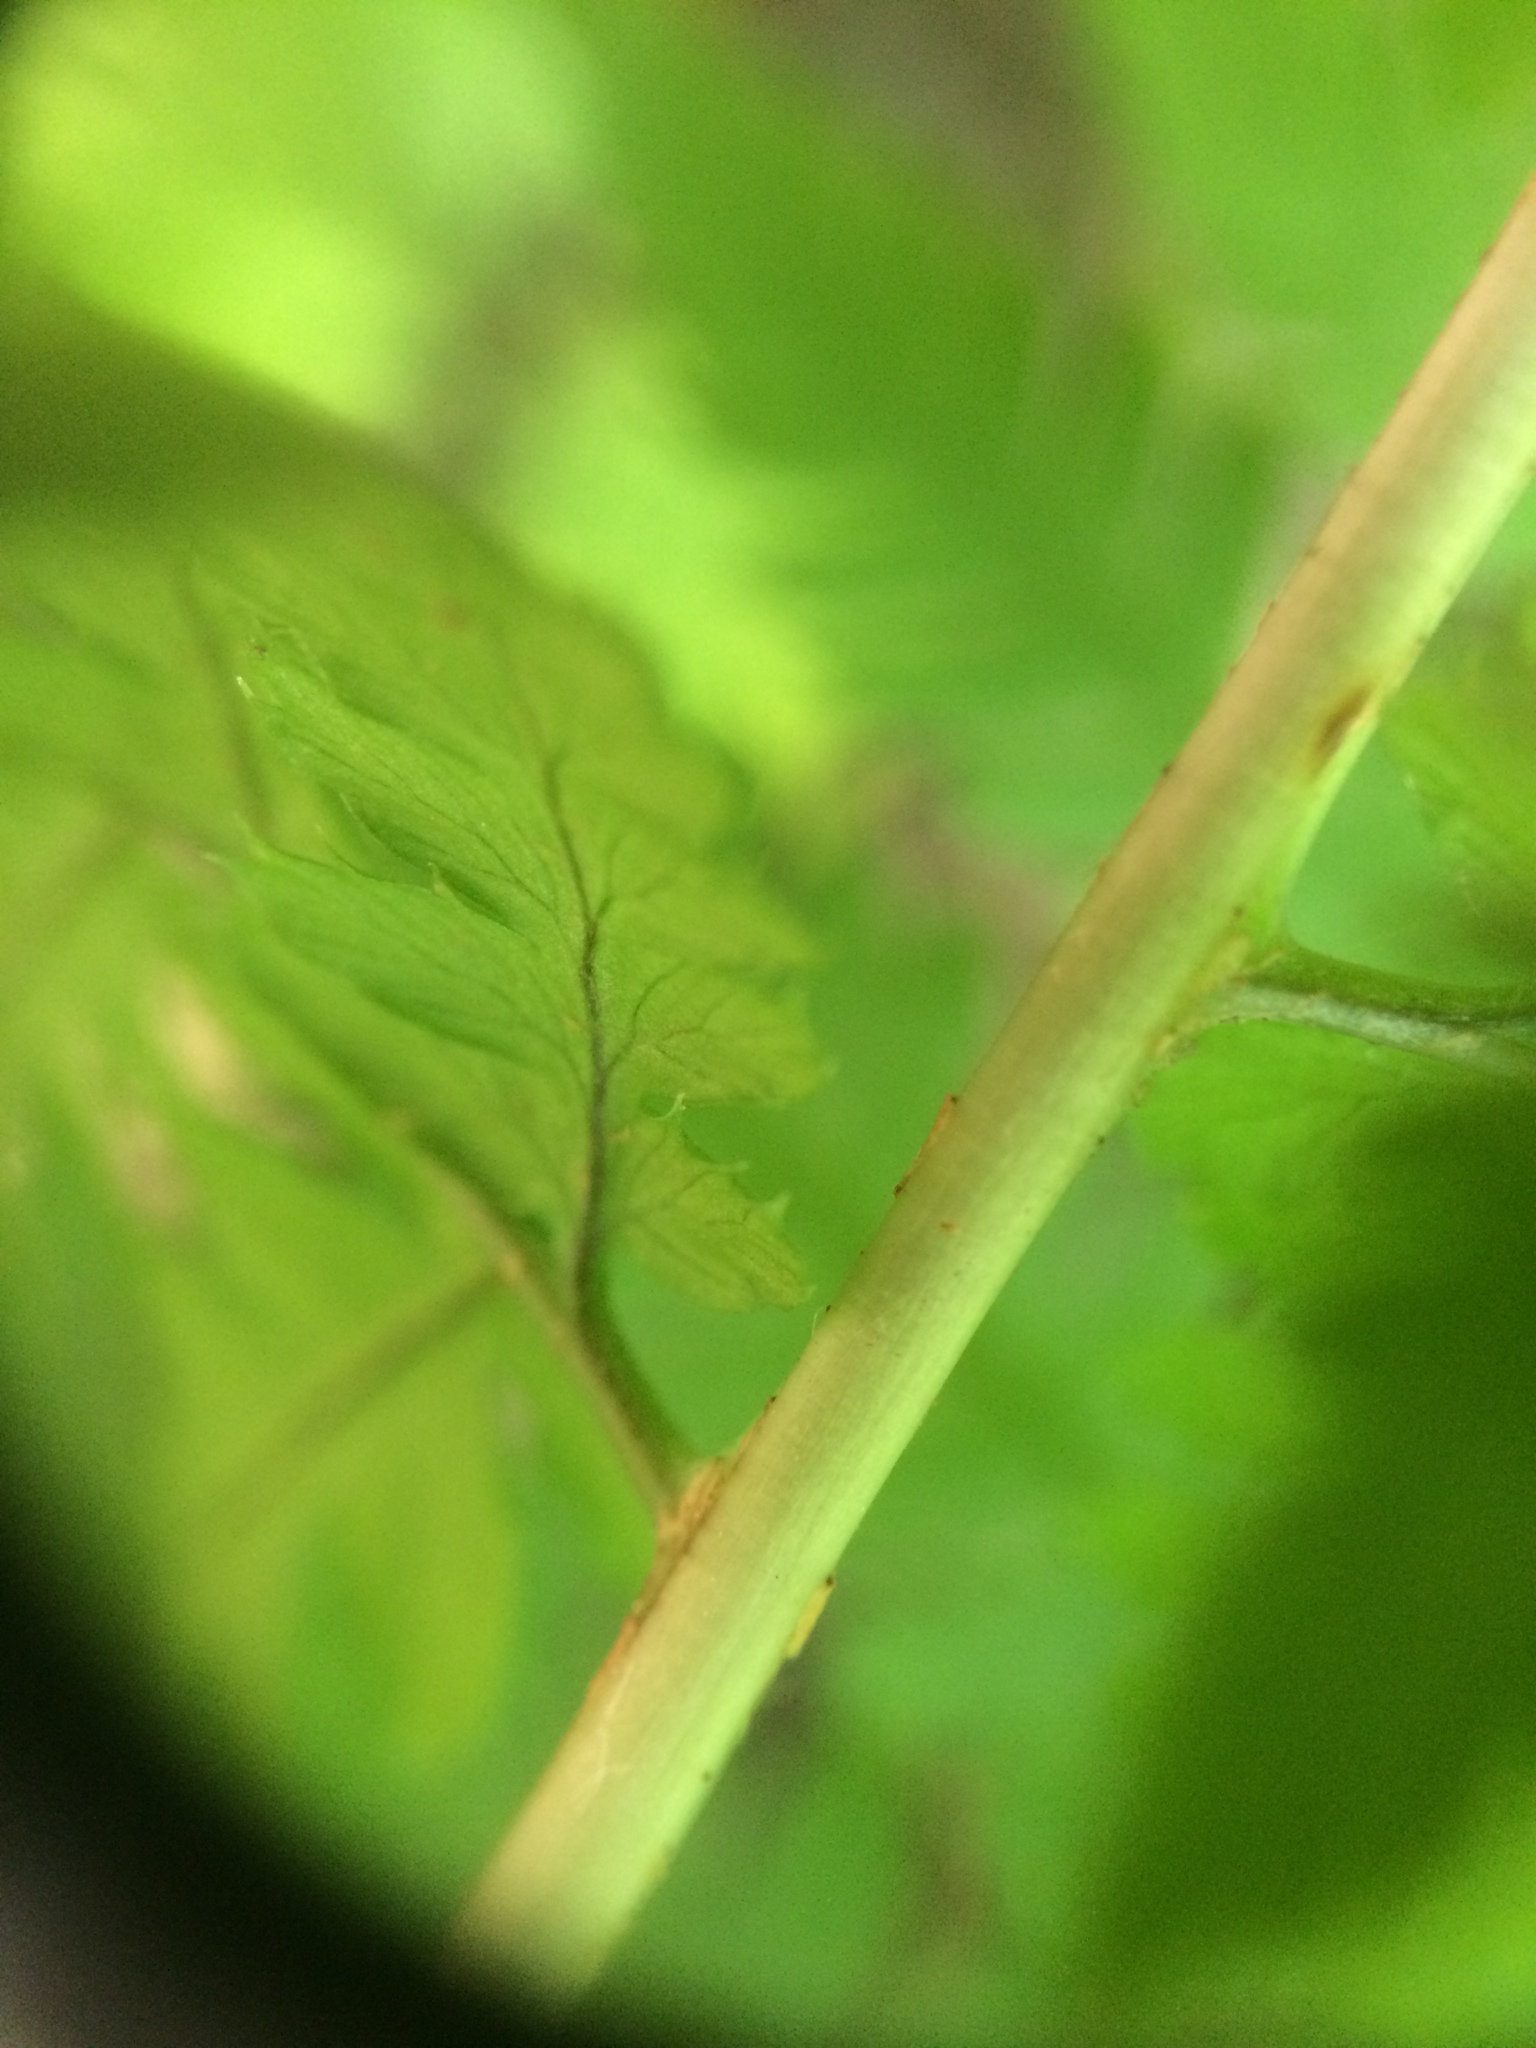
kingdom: Plantae
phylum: Tracheophyta
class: Polypodiopsida
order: Polypodiales
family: Dryopteridaceae
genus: Dryopteris
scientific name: Dryopteris carthusiana
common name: Narrow buckler-fern
